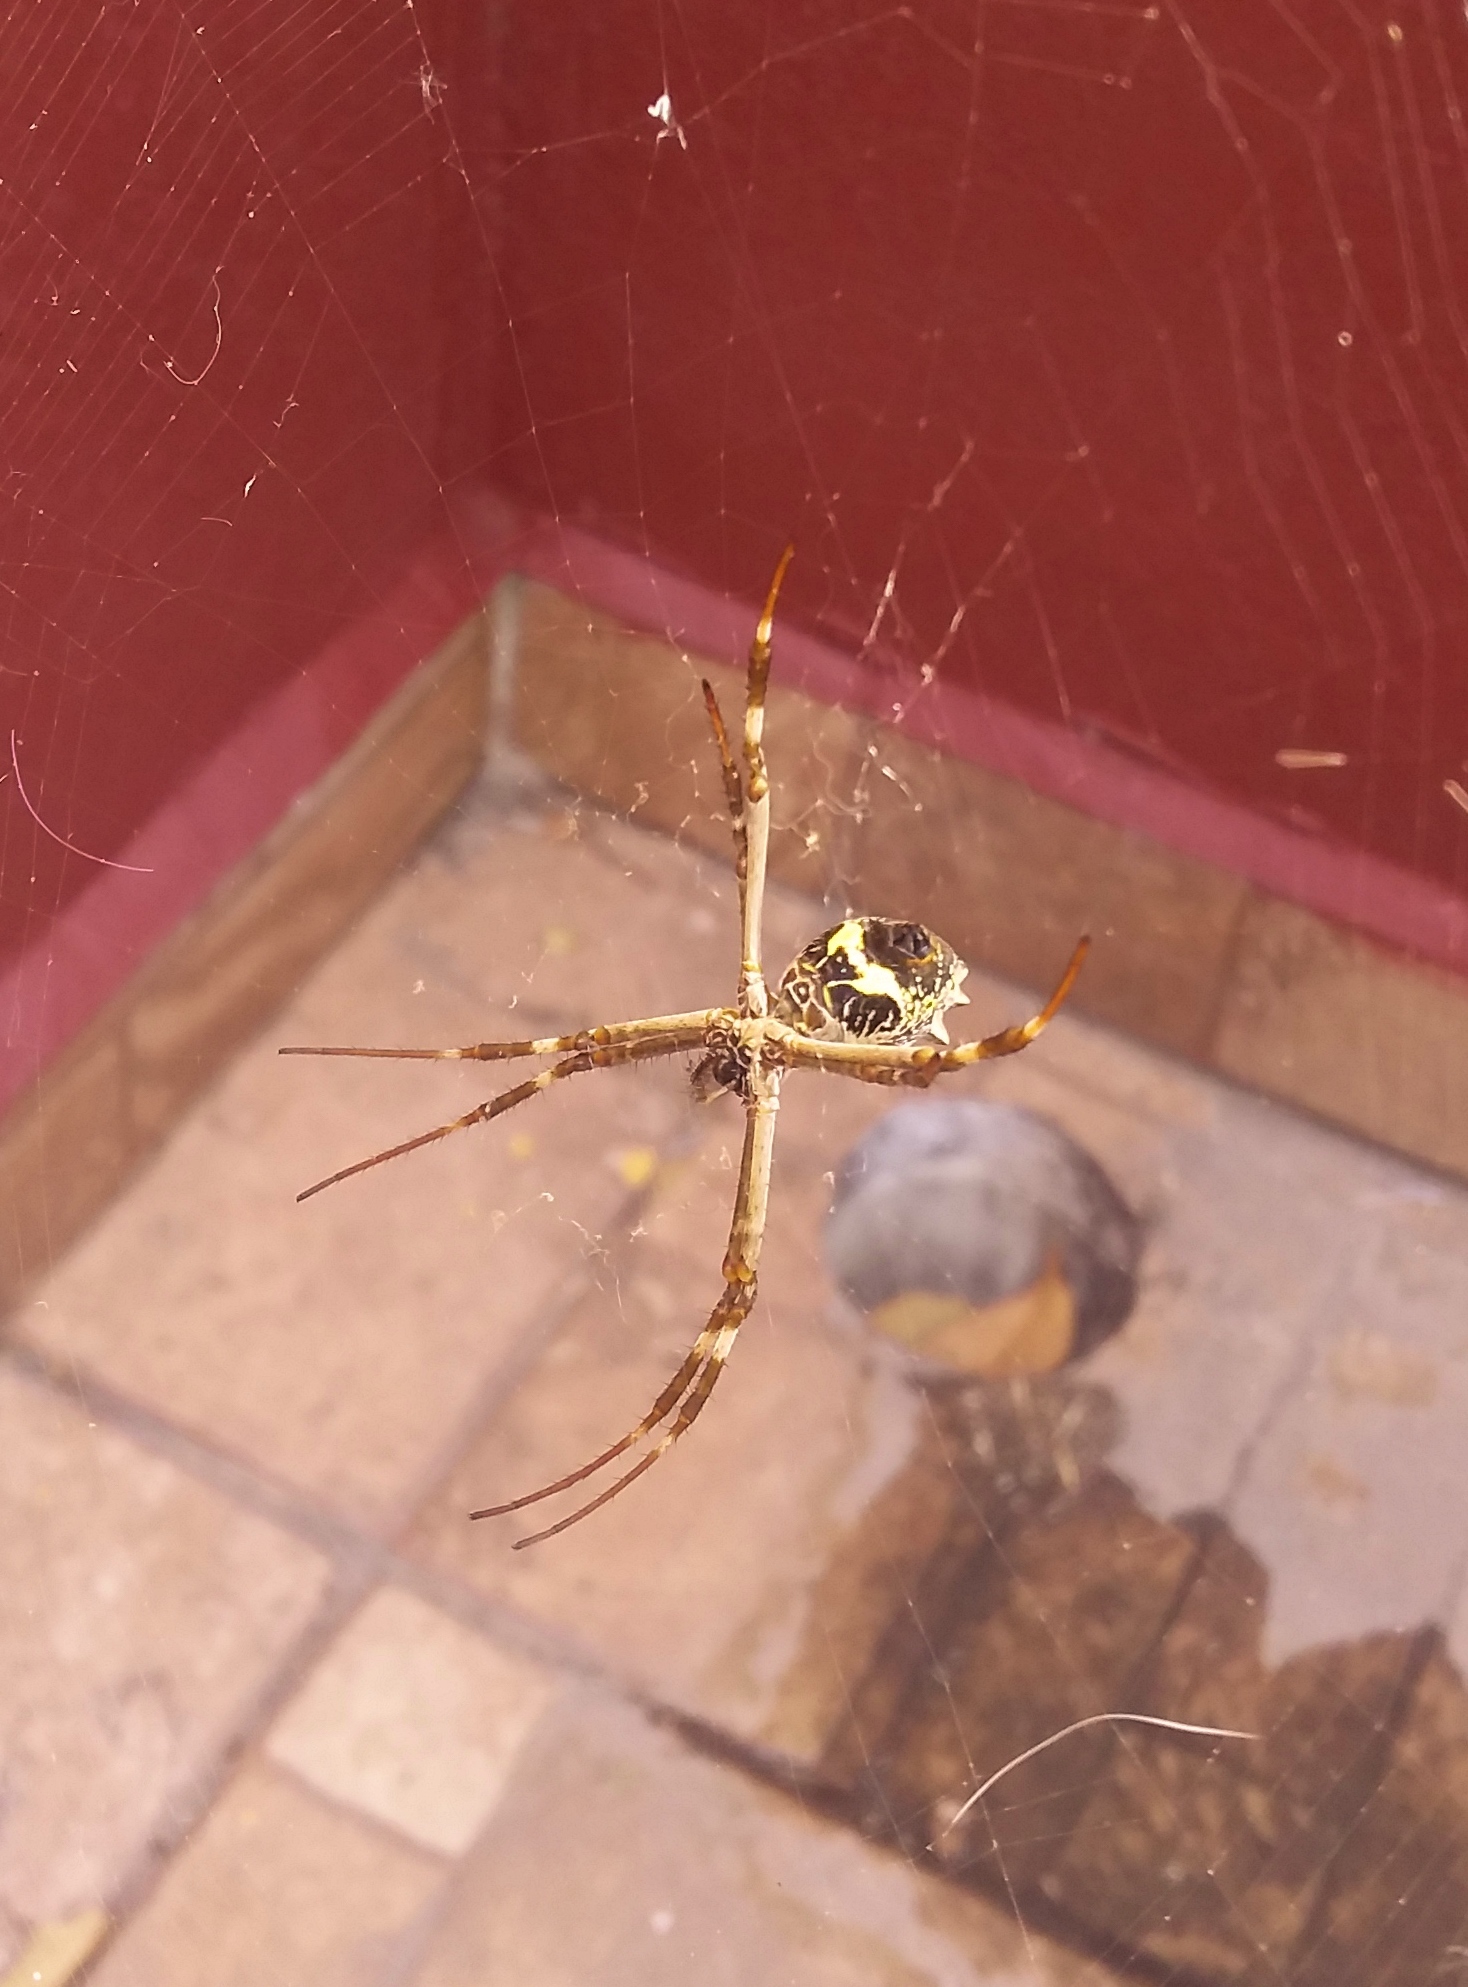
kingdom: Animalia
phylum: Arthropoda
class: Arachnida
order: Araneae
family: Araneidae
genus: Argiope
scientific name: Argiope argentata
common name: Orb weavers
